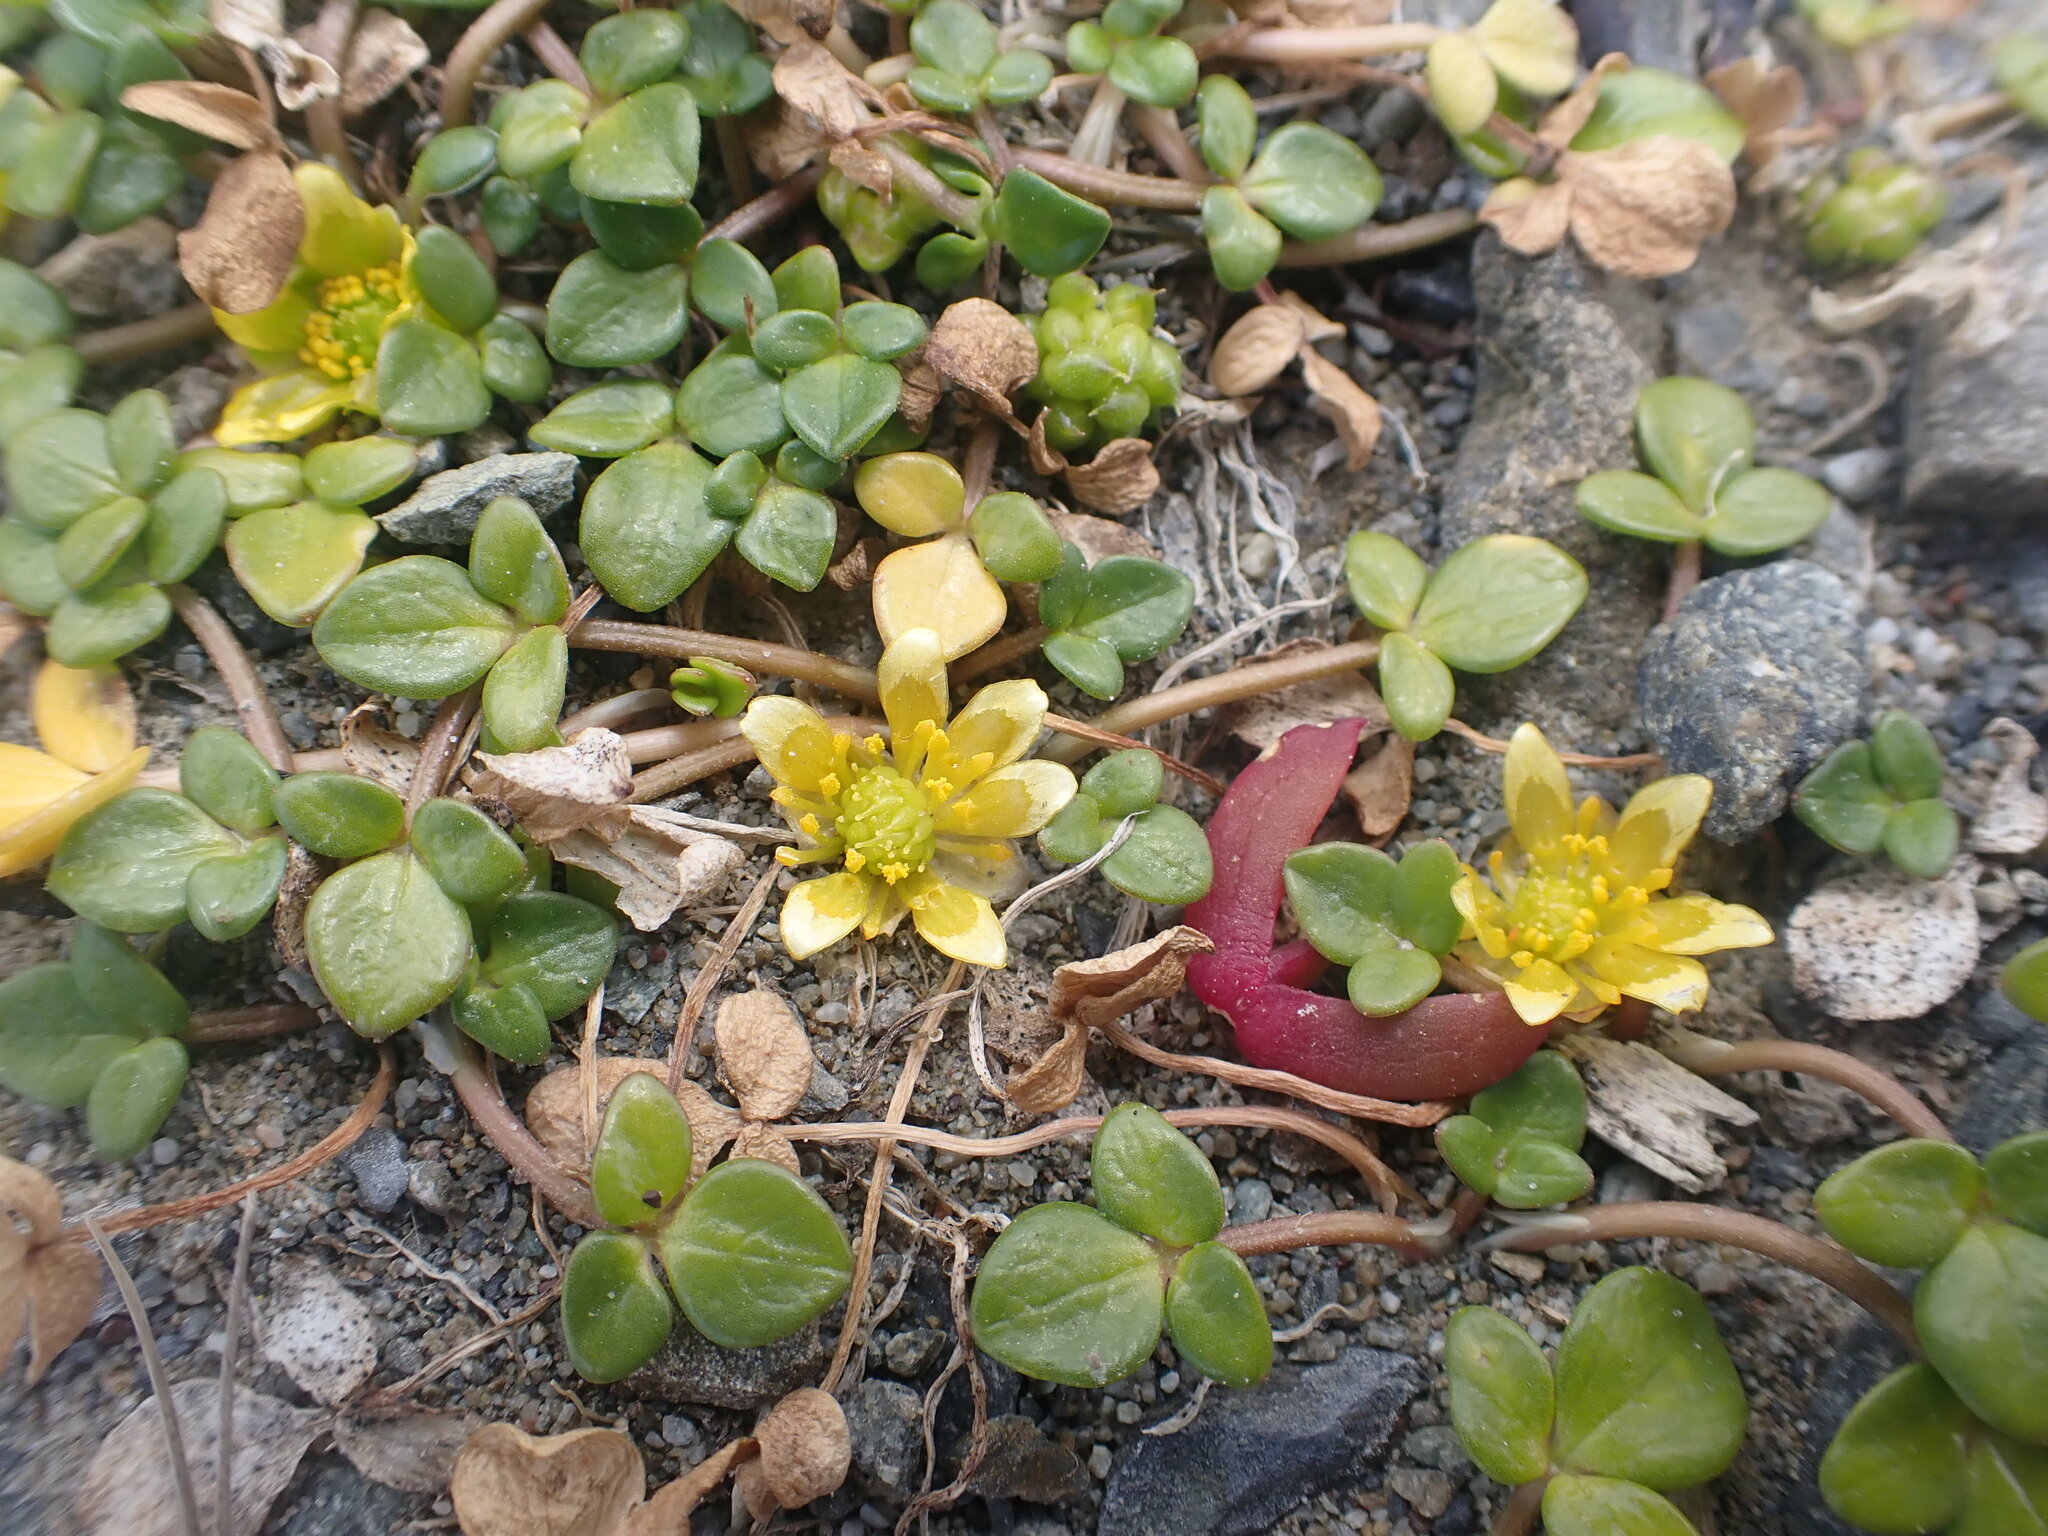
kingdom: Plantae
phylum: Tracheophyta
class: Magnoliopsida
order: Ranunculales
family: Ranunculaceae
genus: Ranunculus
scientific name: Ranunculus acaulis
